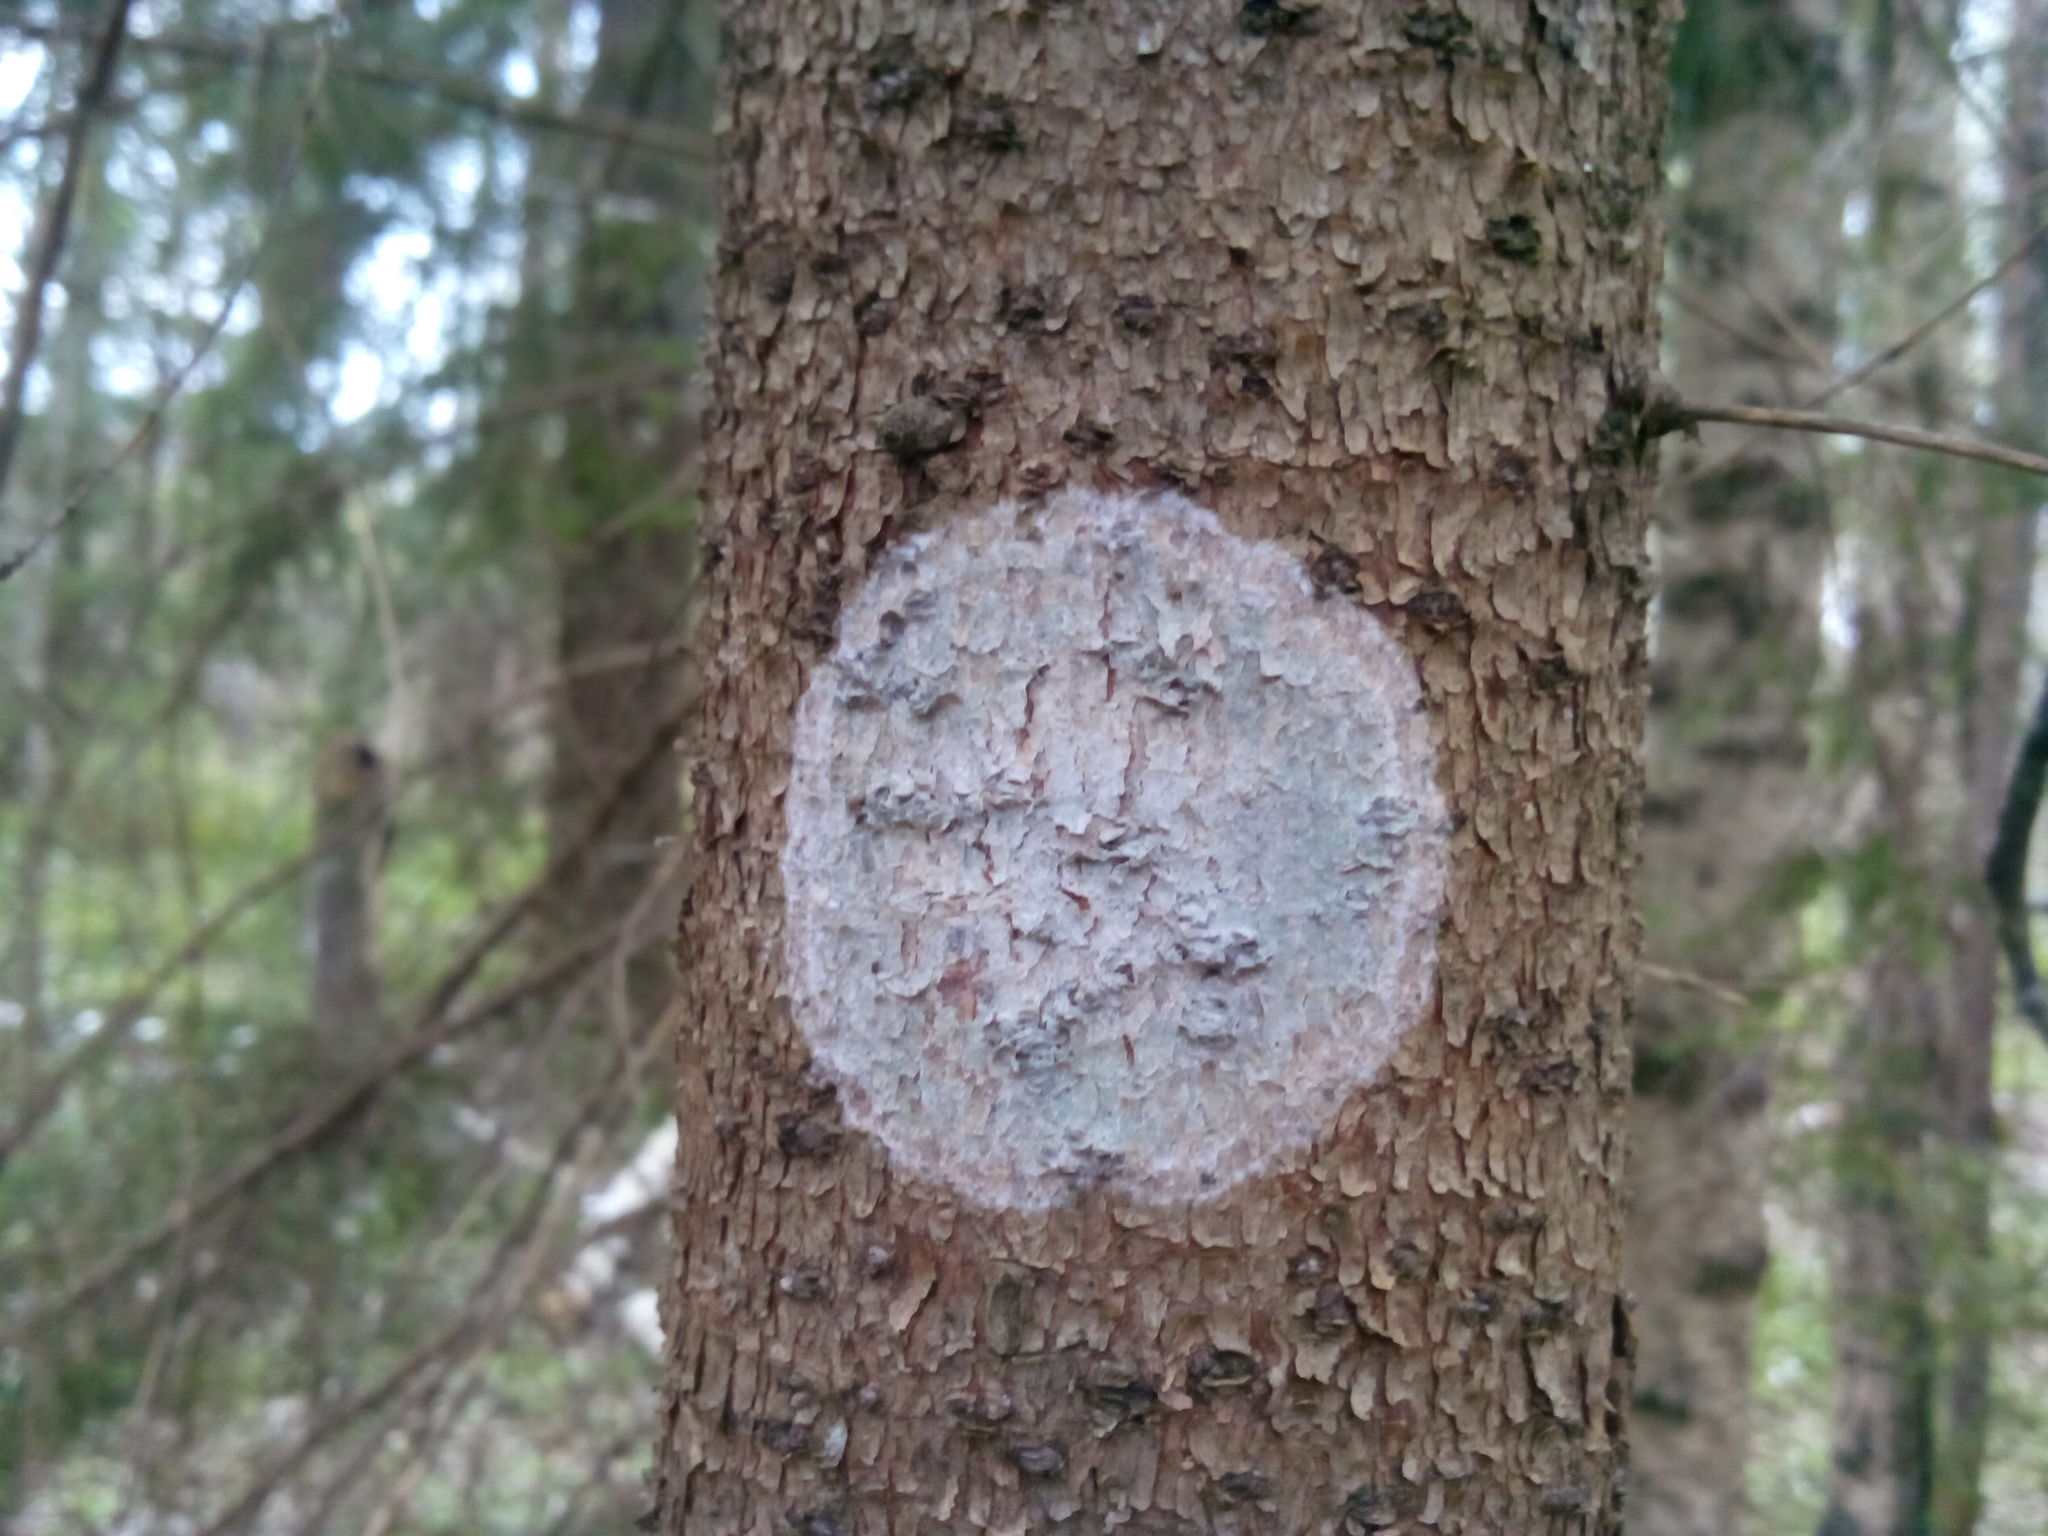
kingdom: Fungi
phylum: Ascomycota
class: Lecanoromycetes
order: Ostropales
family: Phlyctidaceae
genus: Phlyctis
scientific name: Phlyctis argena
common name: Whitewash lichen
